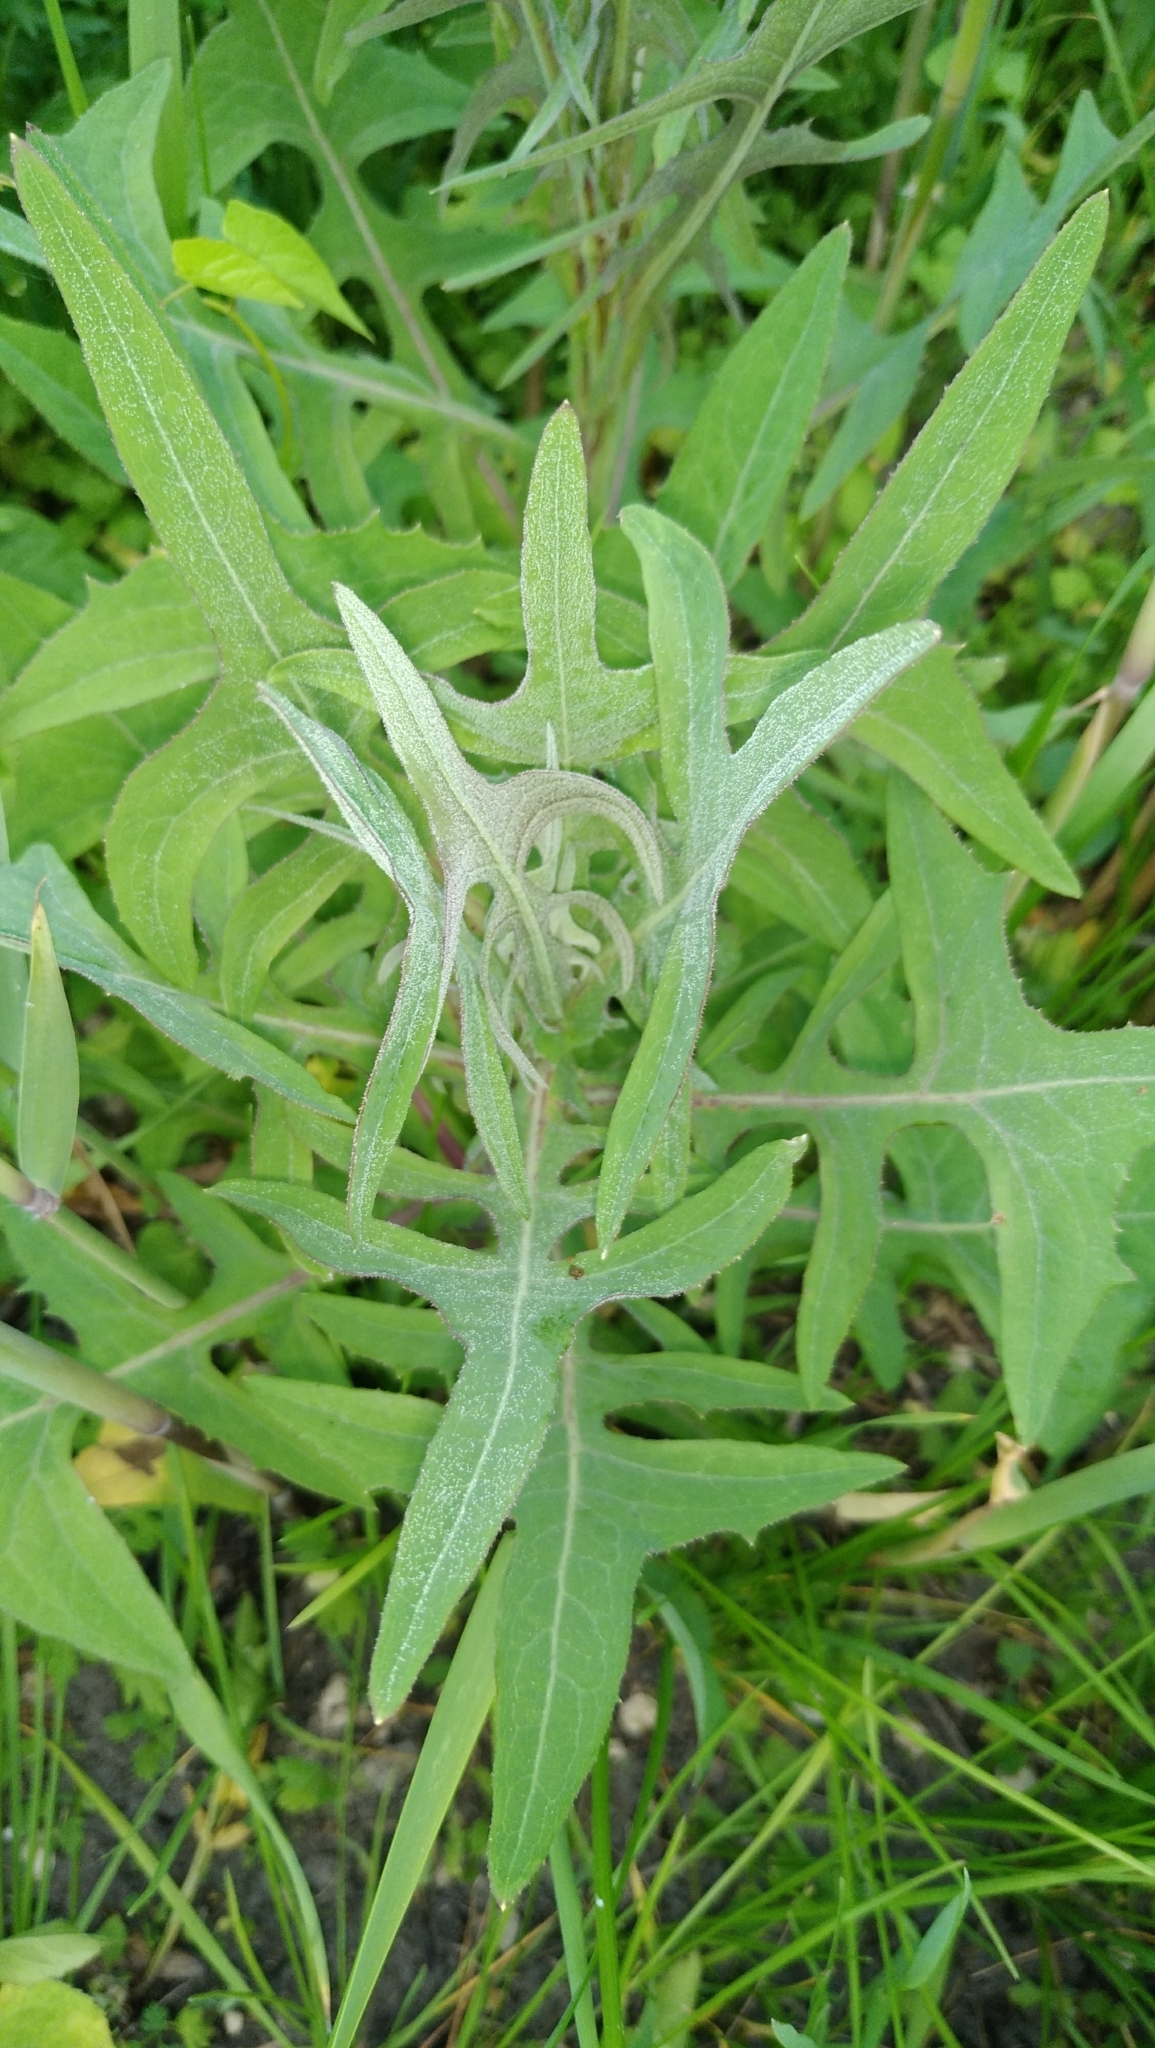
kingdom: Plantae
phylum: Tracheophyta
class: Magnoliopsida
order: Asterales
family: Asteraceae
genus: Sonchus
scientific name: Sonchus palustris
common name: Marsh sow-thistle
